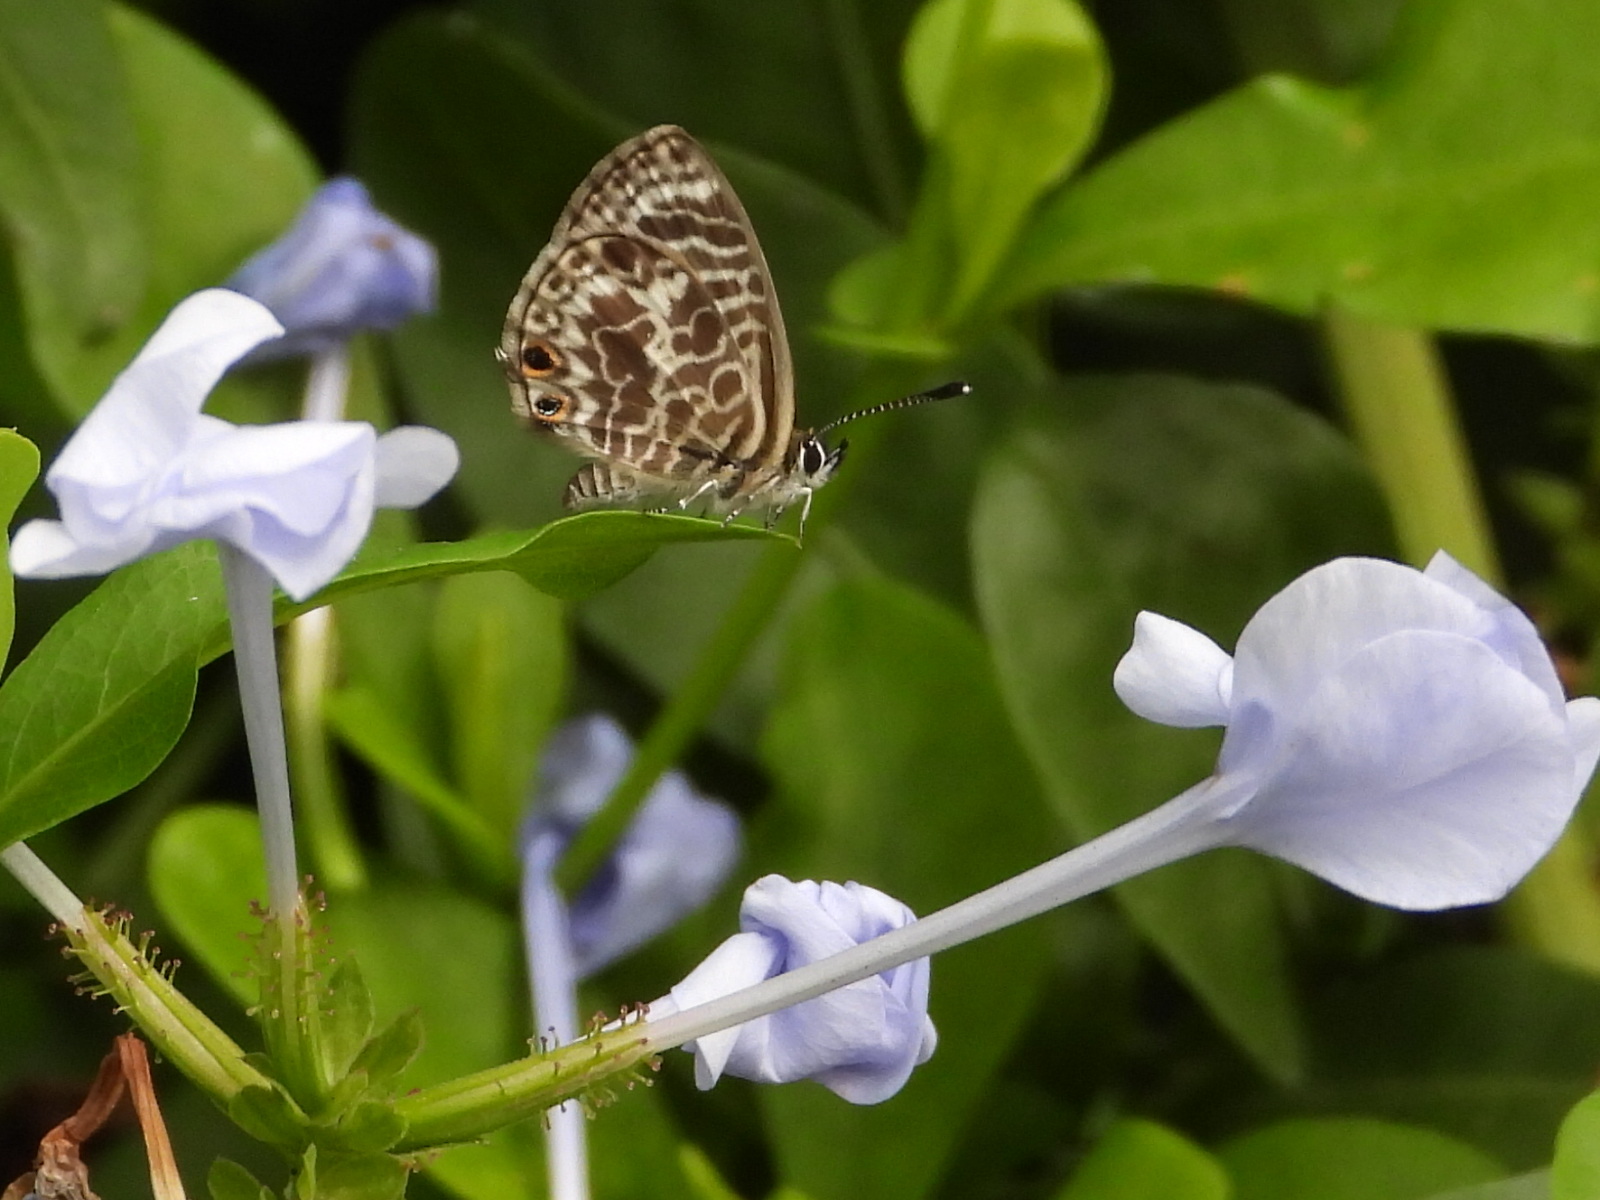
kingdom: Animalia
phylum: Arthropoda
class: Insecta
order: Lepidoptera
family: Lycaenidae
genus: Leptotes
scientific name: Leptotes plinius
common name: Zebra blue
